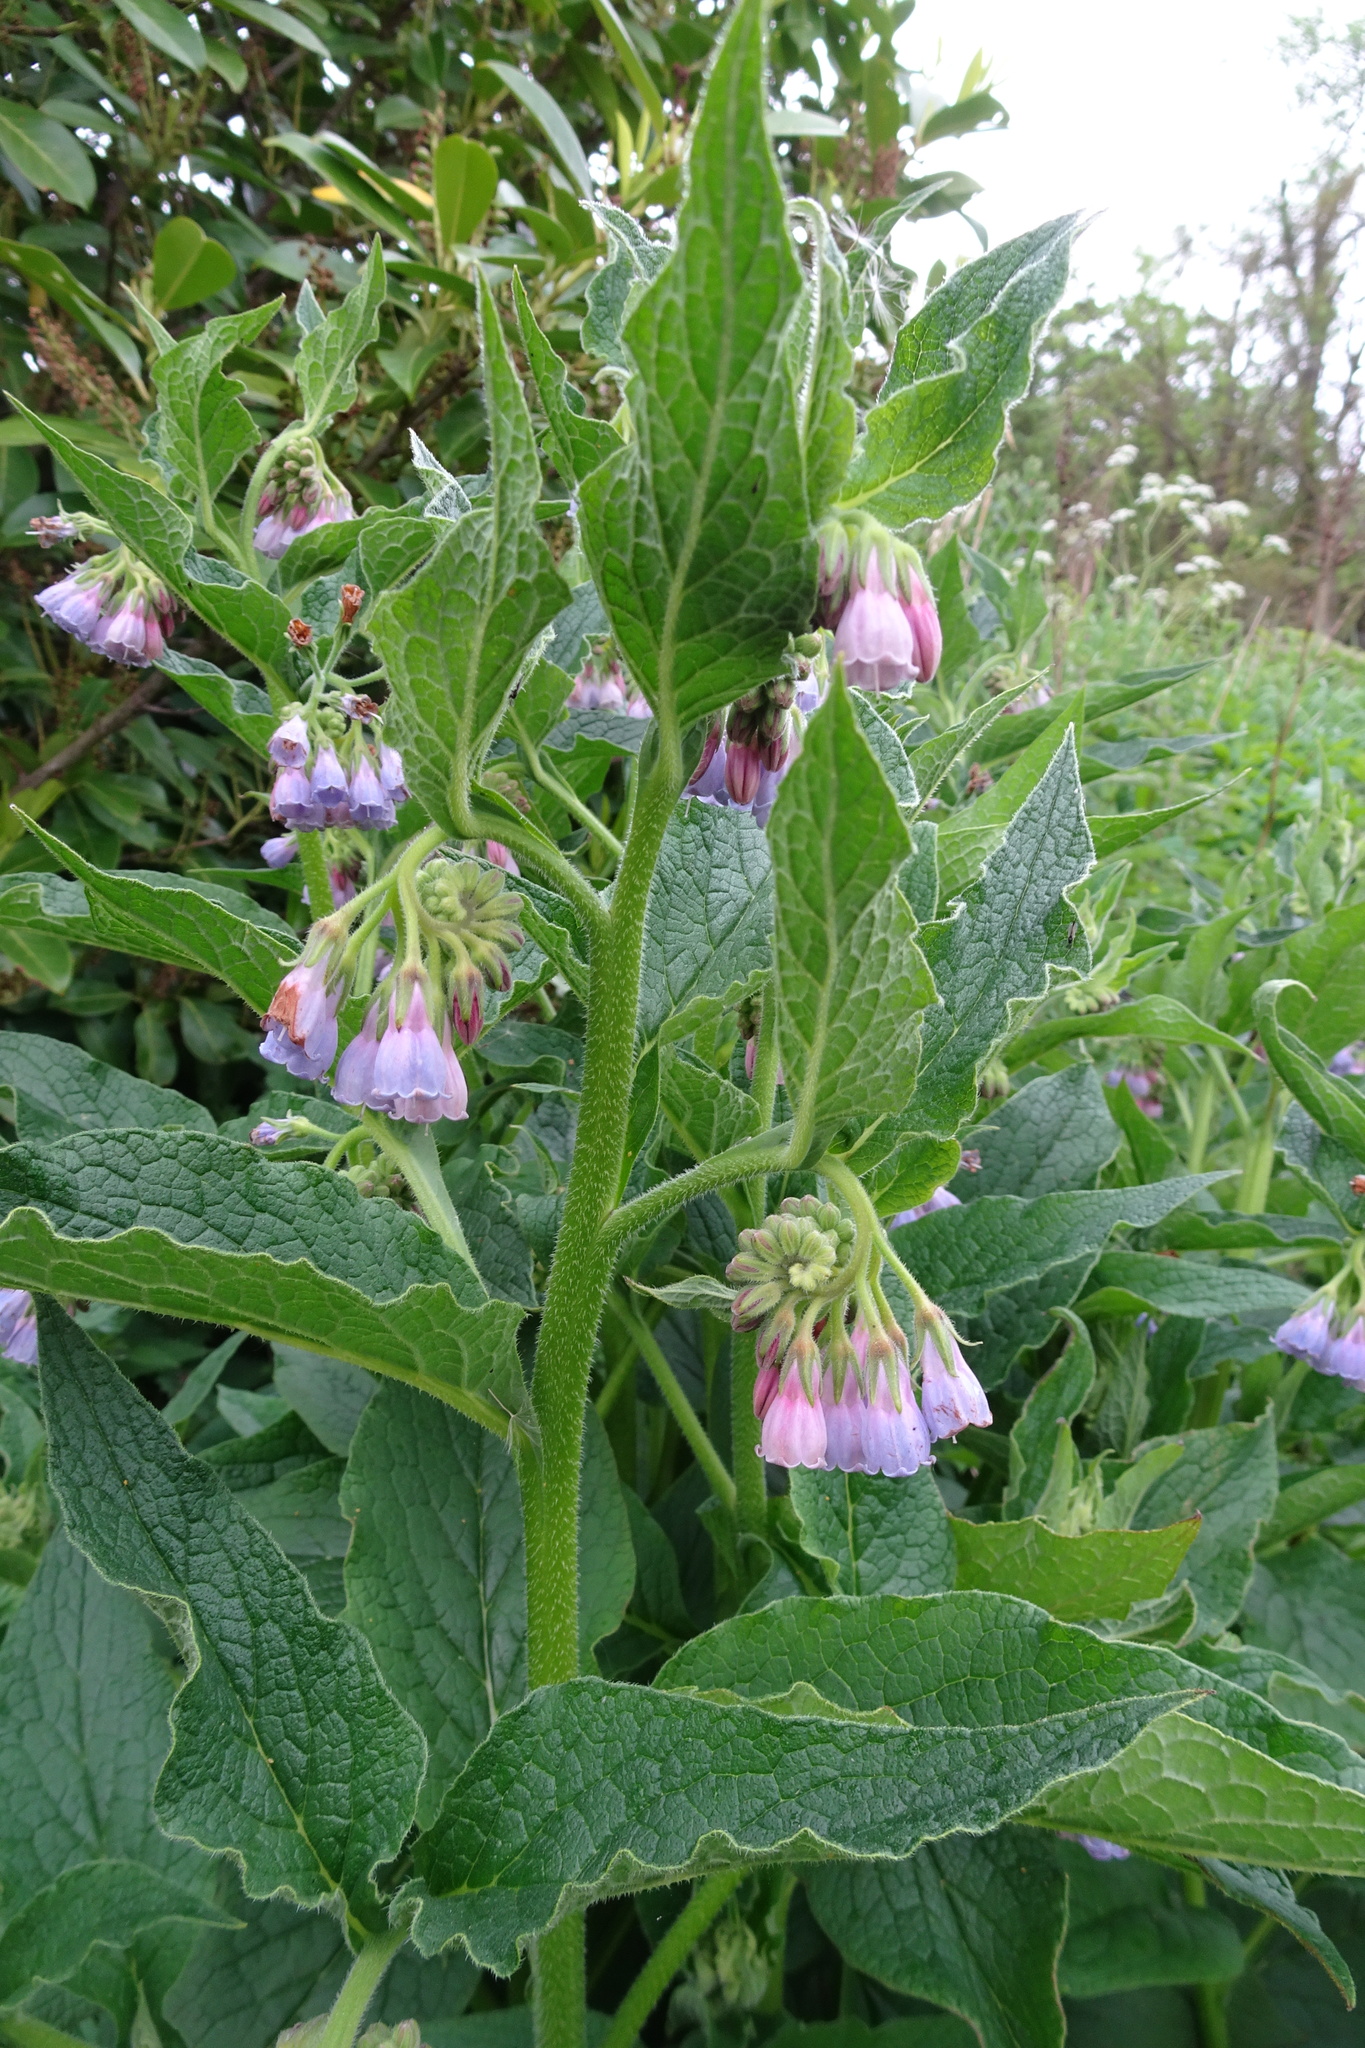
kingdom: Plantae
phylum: Tracheophyta
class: Magnoliopsida
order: Boraginales
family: Boraginaceae
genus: Symphytum
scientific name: Symphytum uplandicum
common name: Russian comfrey
